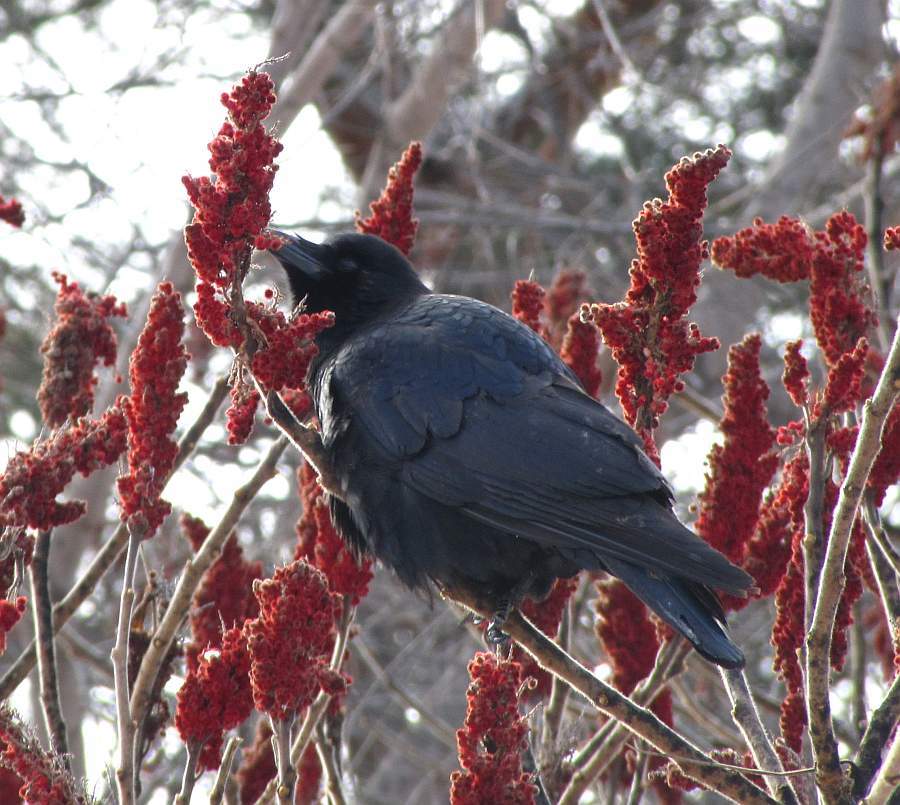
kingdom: Animalia
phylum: Chordata
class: Aves
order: Passeriformes
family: Corvidae
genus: Corvus
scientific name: Corvus brachyrhynchos
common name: American crow
